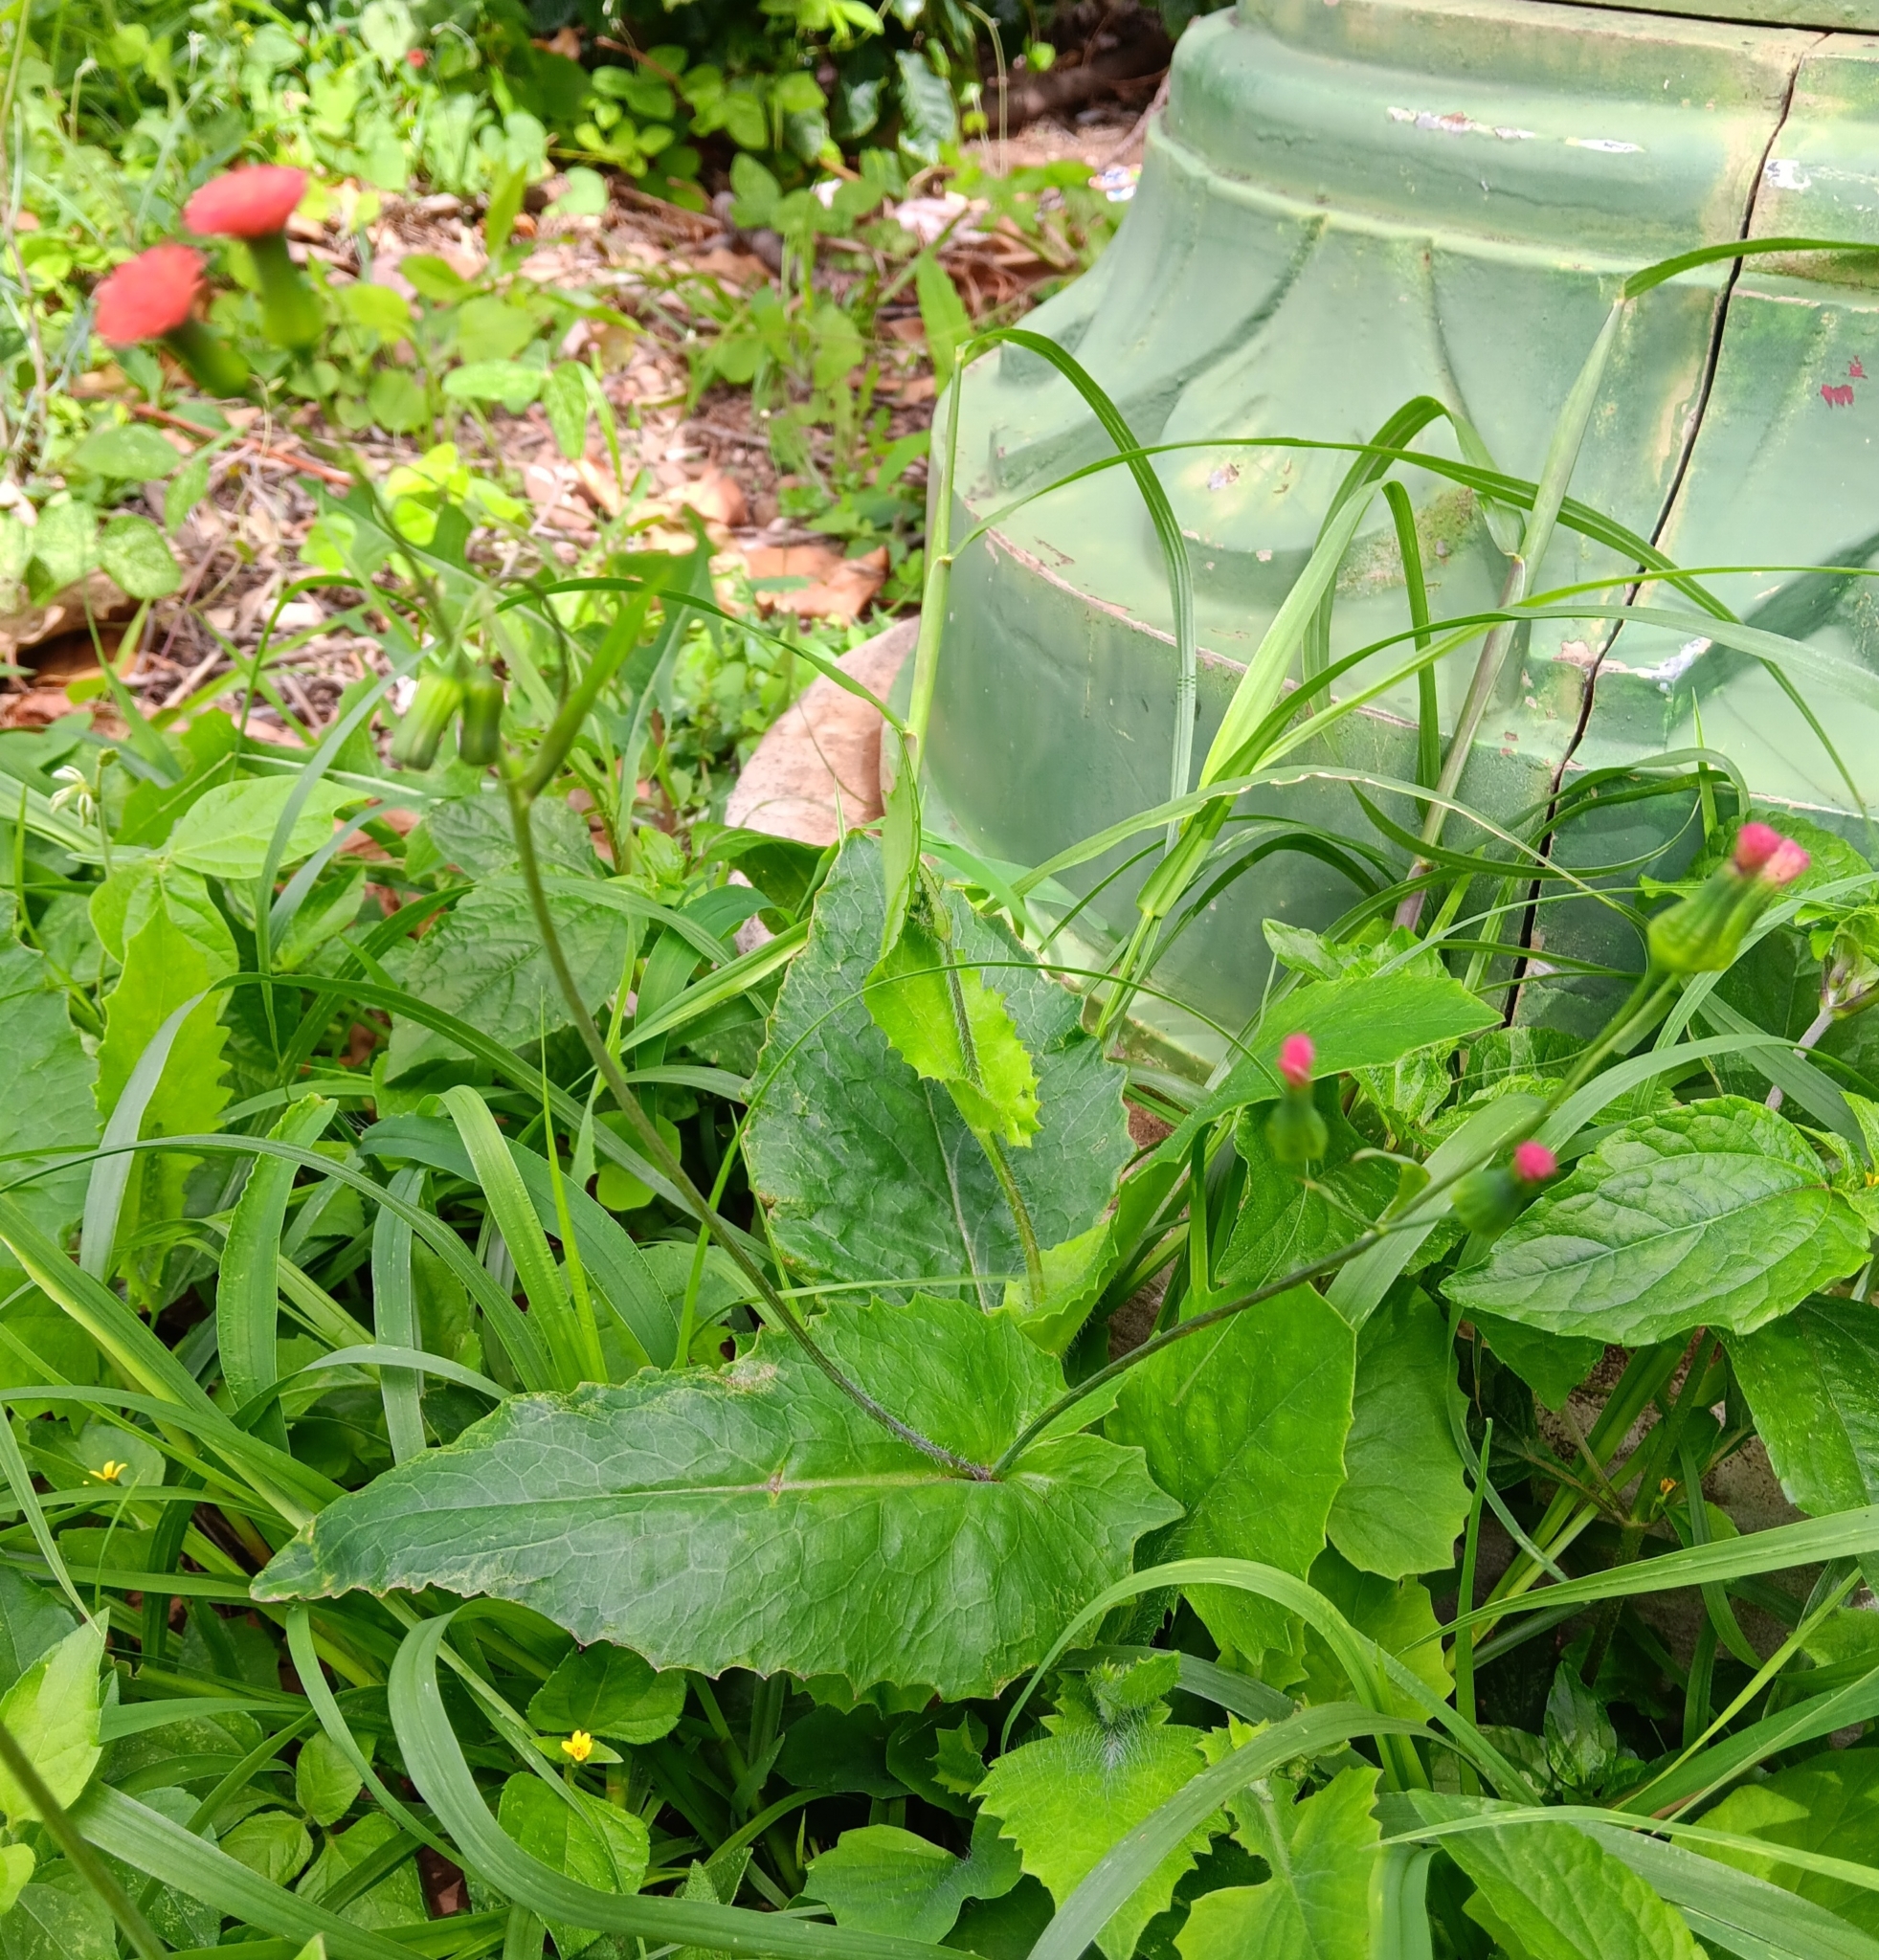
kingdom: Plantae
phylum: Tracheophyta
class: Magnoliopsida
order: Asterales
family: Asteraceae
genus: Emilia
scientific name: Emilia fosbergii
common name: Florida tasselflower
